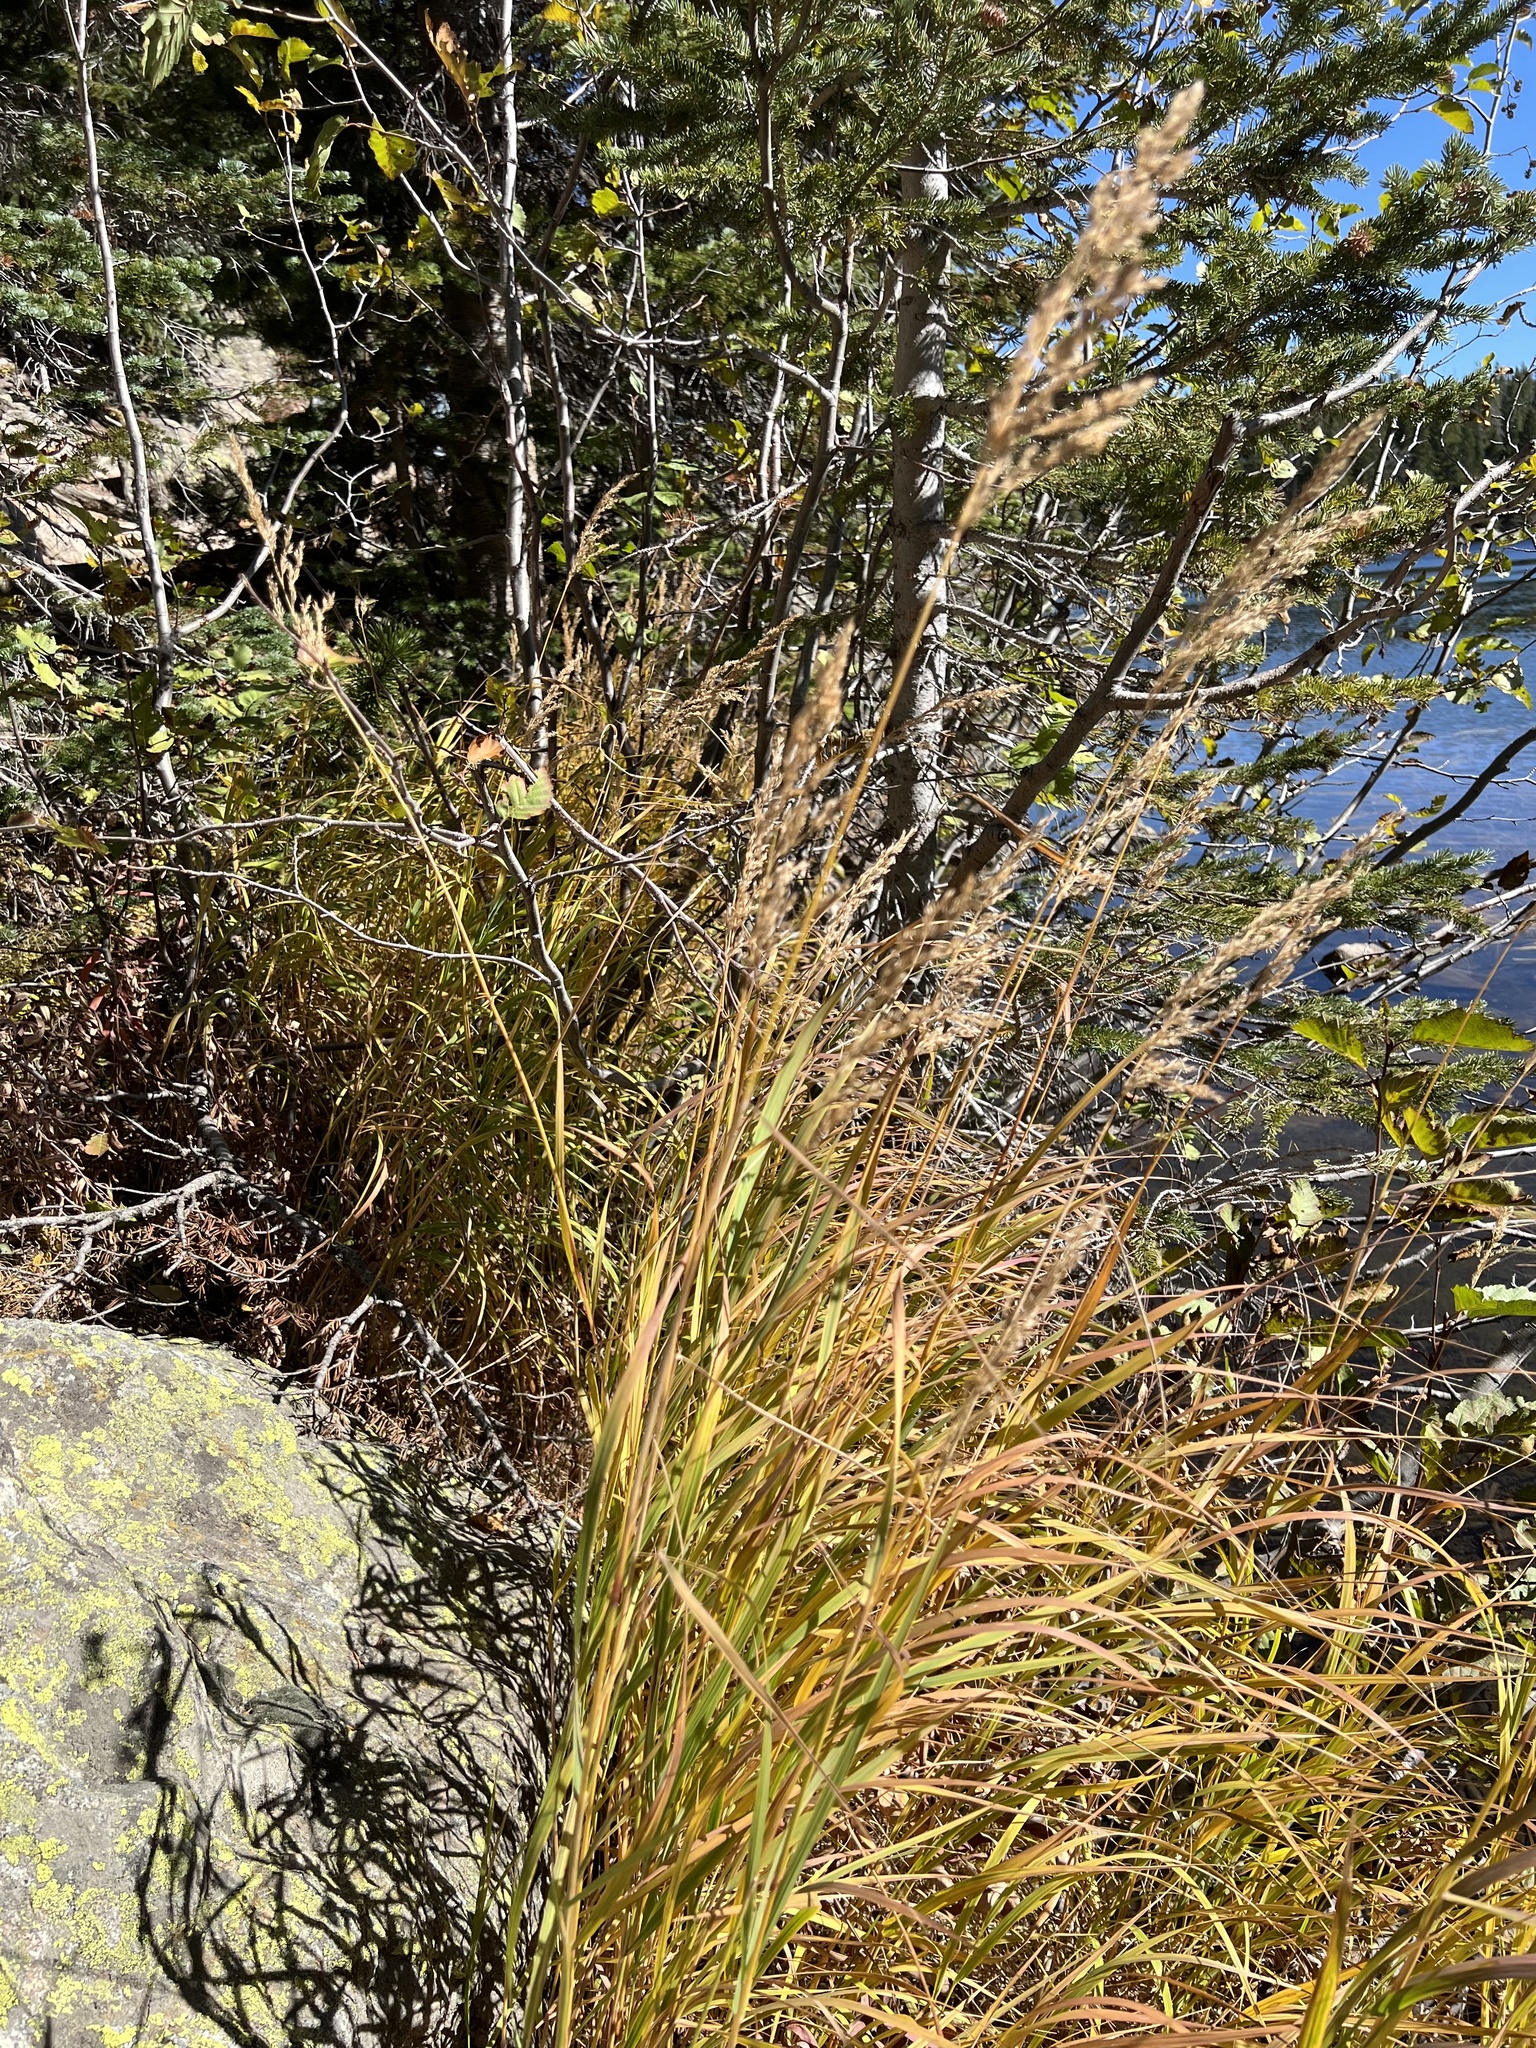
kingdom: Plantae
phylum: Tracheophyta
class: Liliopsida
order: Poales
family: Poaceae
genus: Calamagrostis
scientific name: Calamagrostis canadensis
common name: Canada bluejoint
